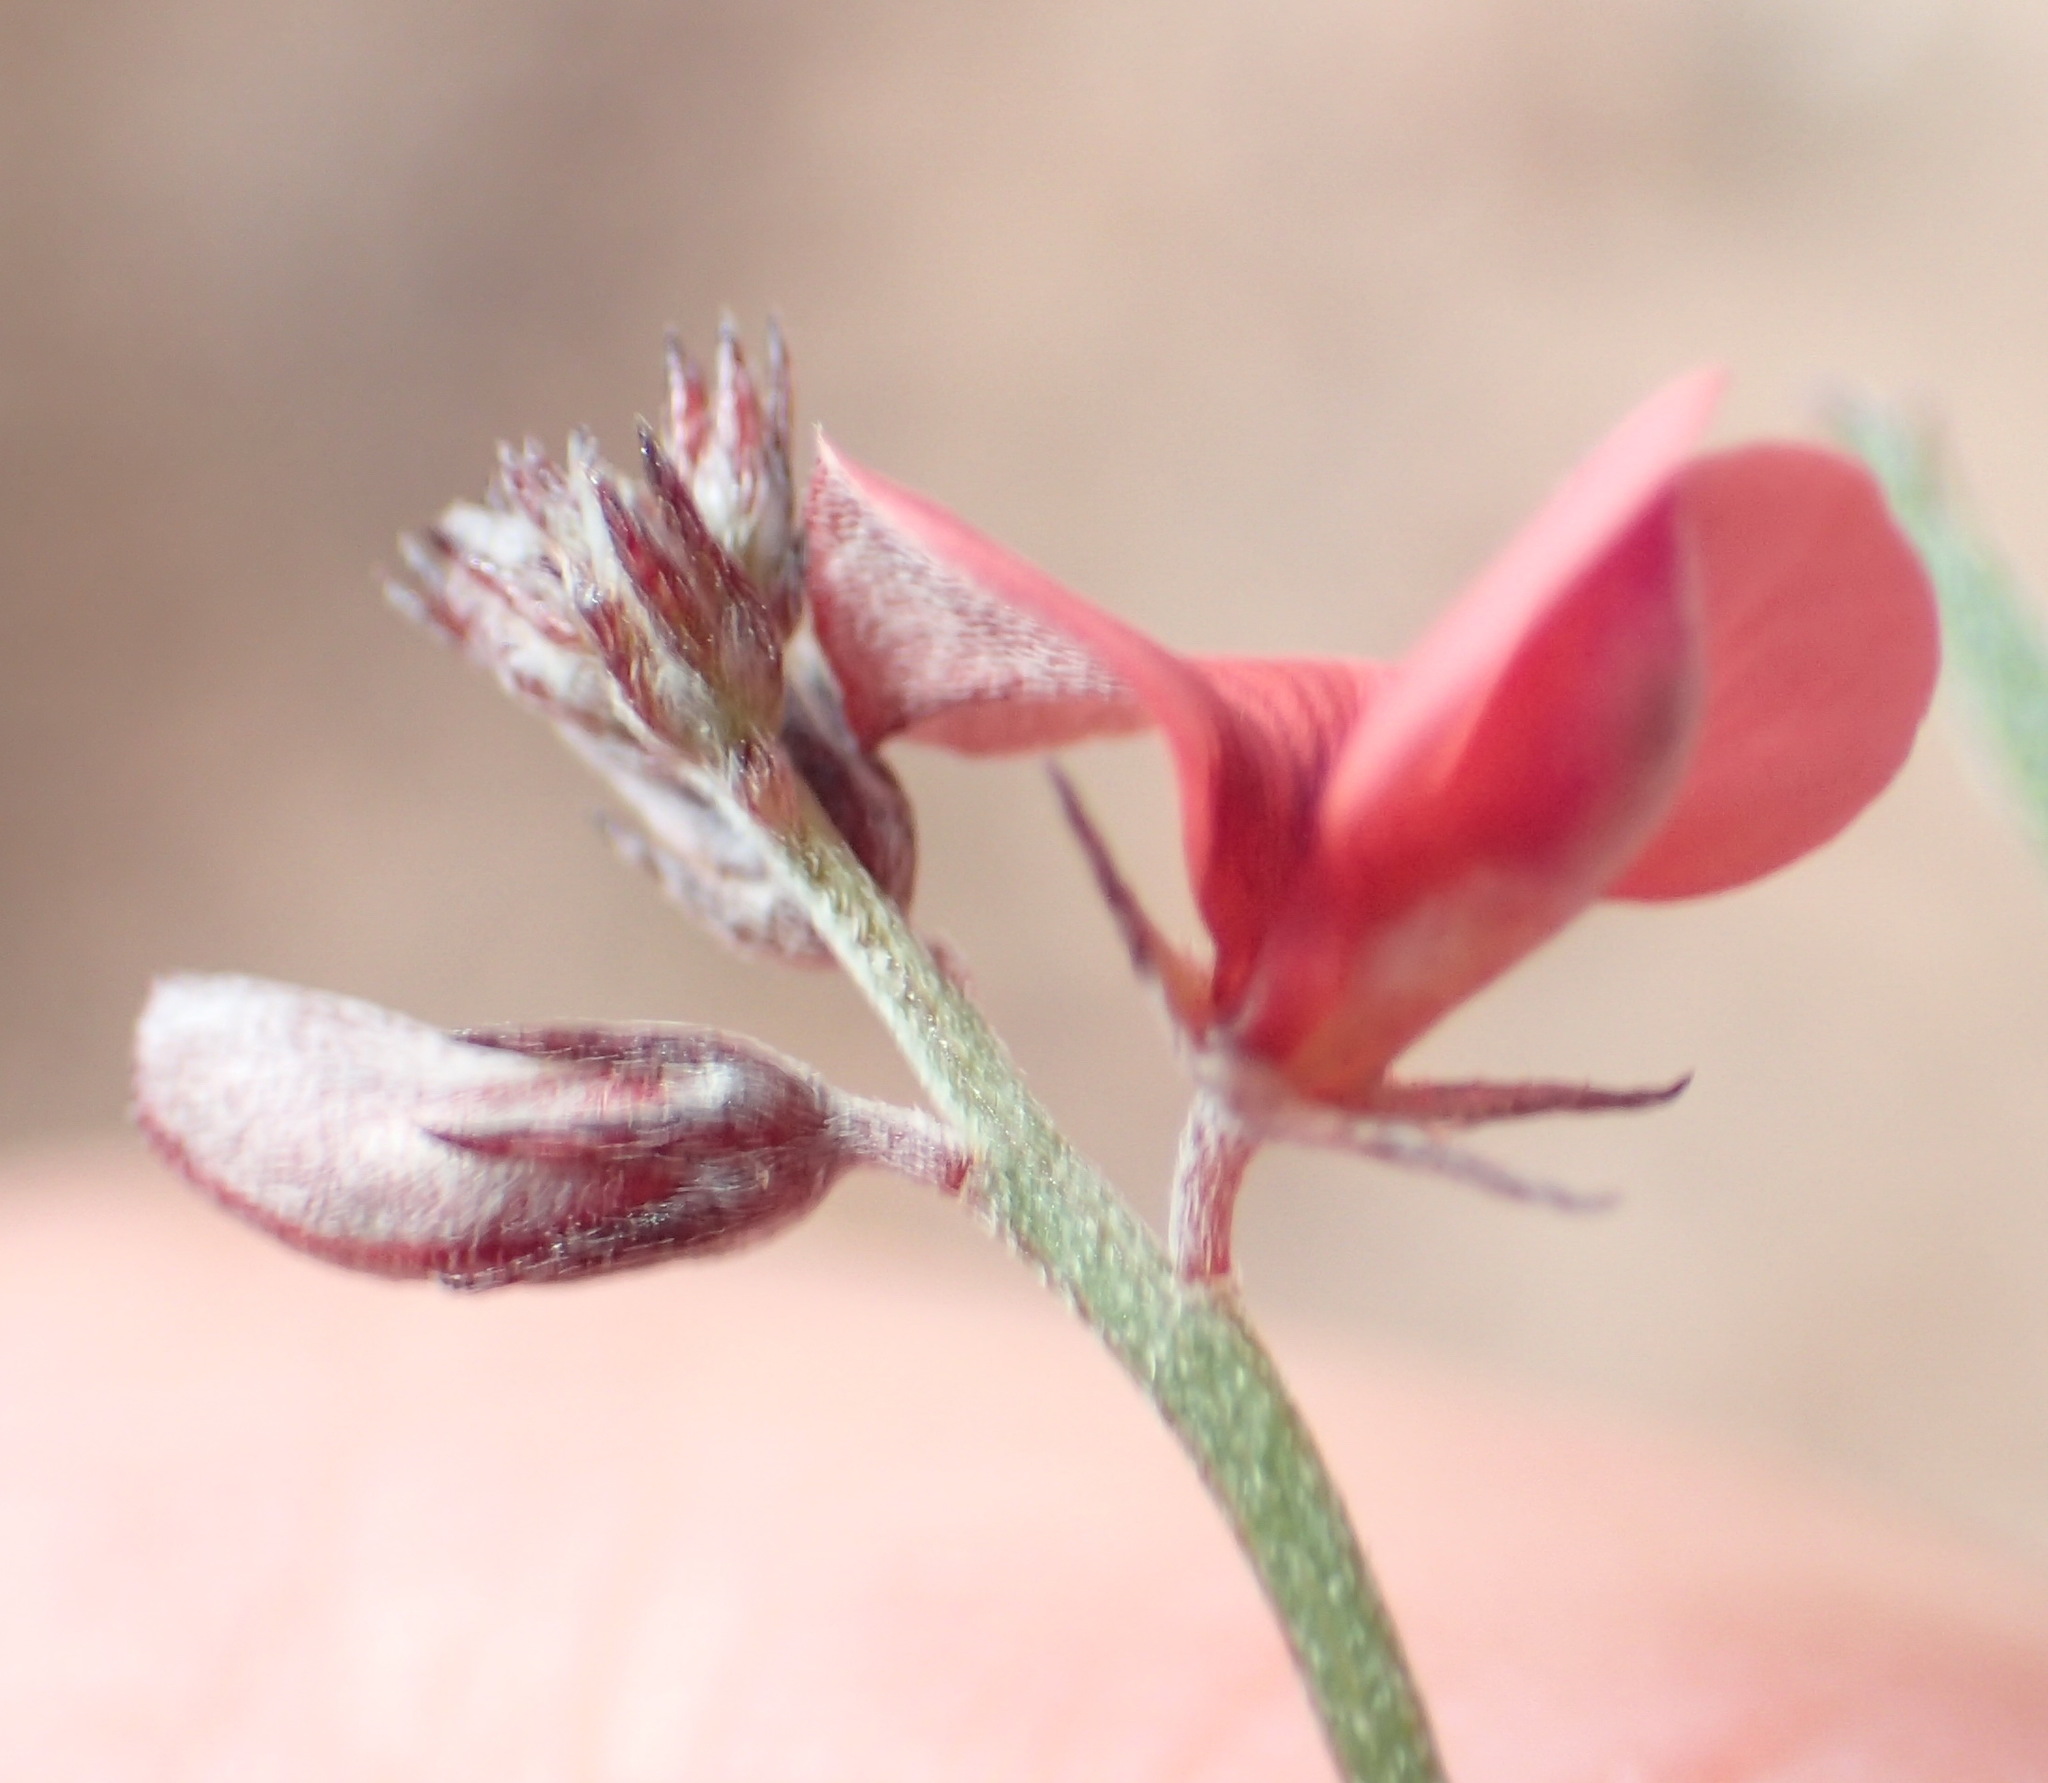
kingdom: Plantae
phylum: Tracheophyta
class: Magnoliopsida
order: Fabales
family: Fabaceae
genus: Indigofera
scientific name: Indigofera leptocarpa
